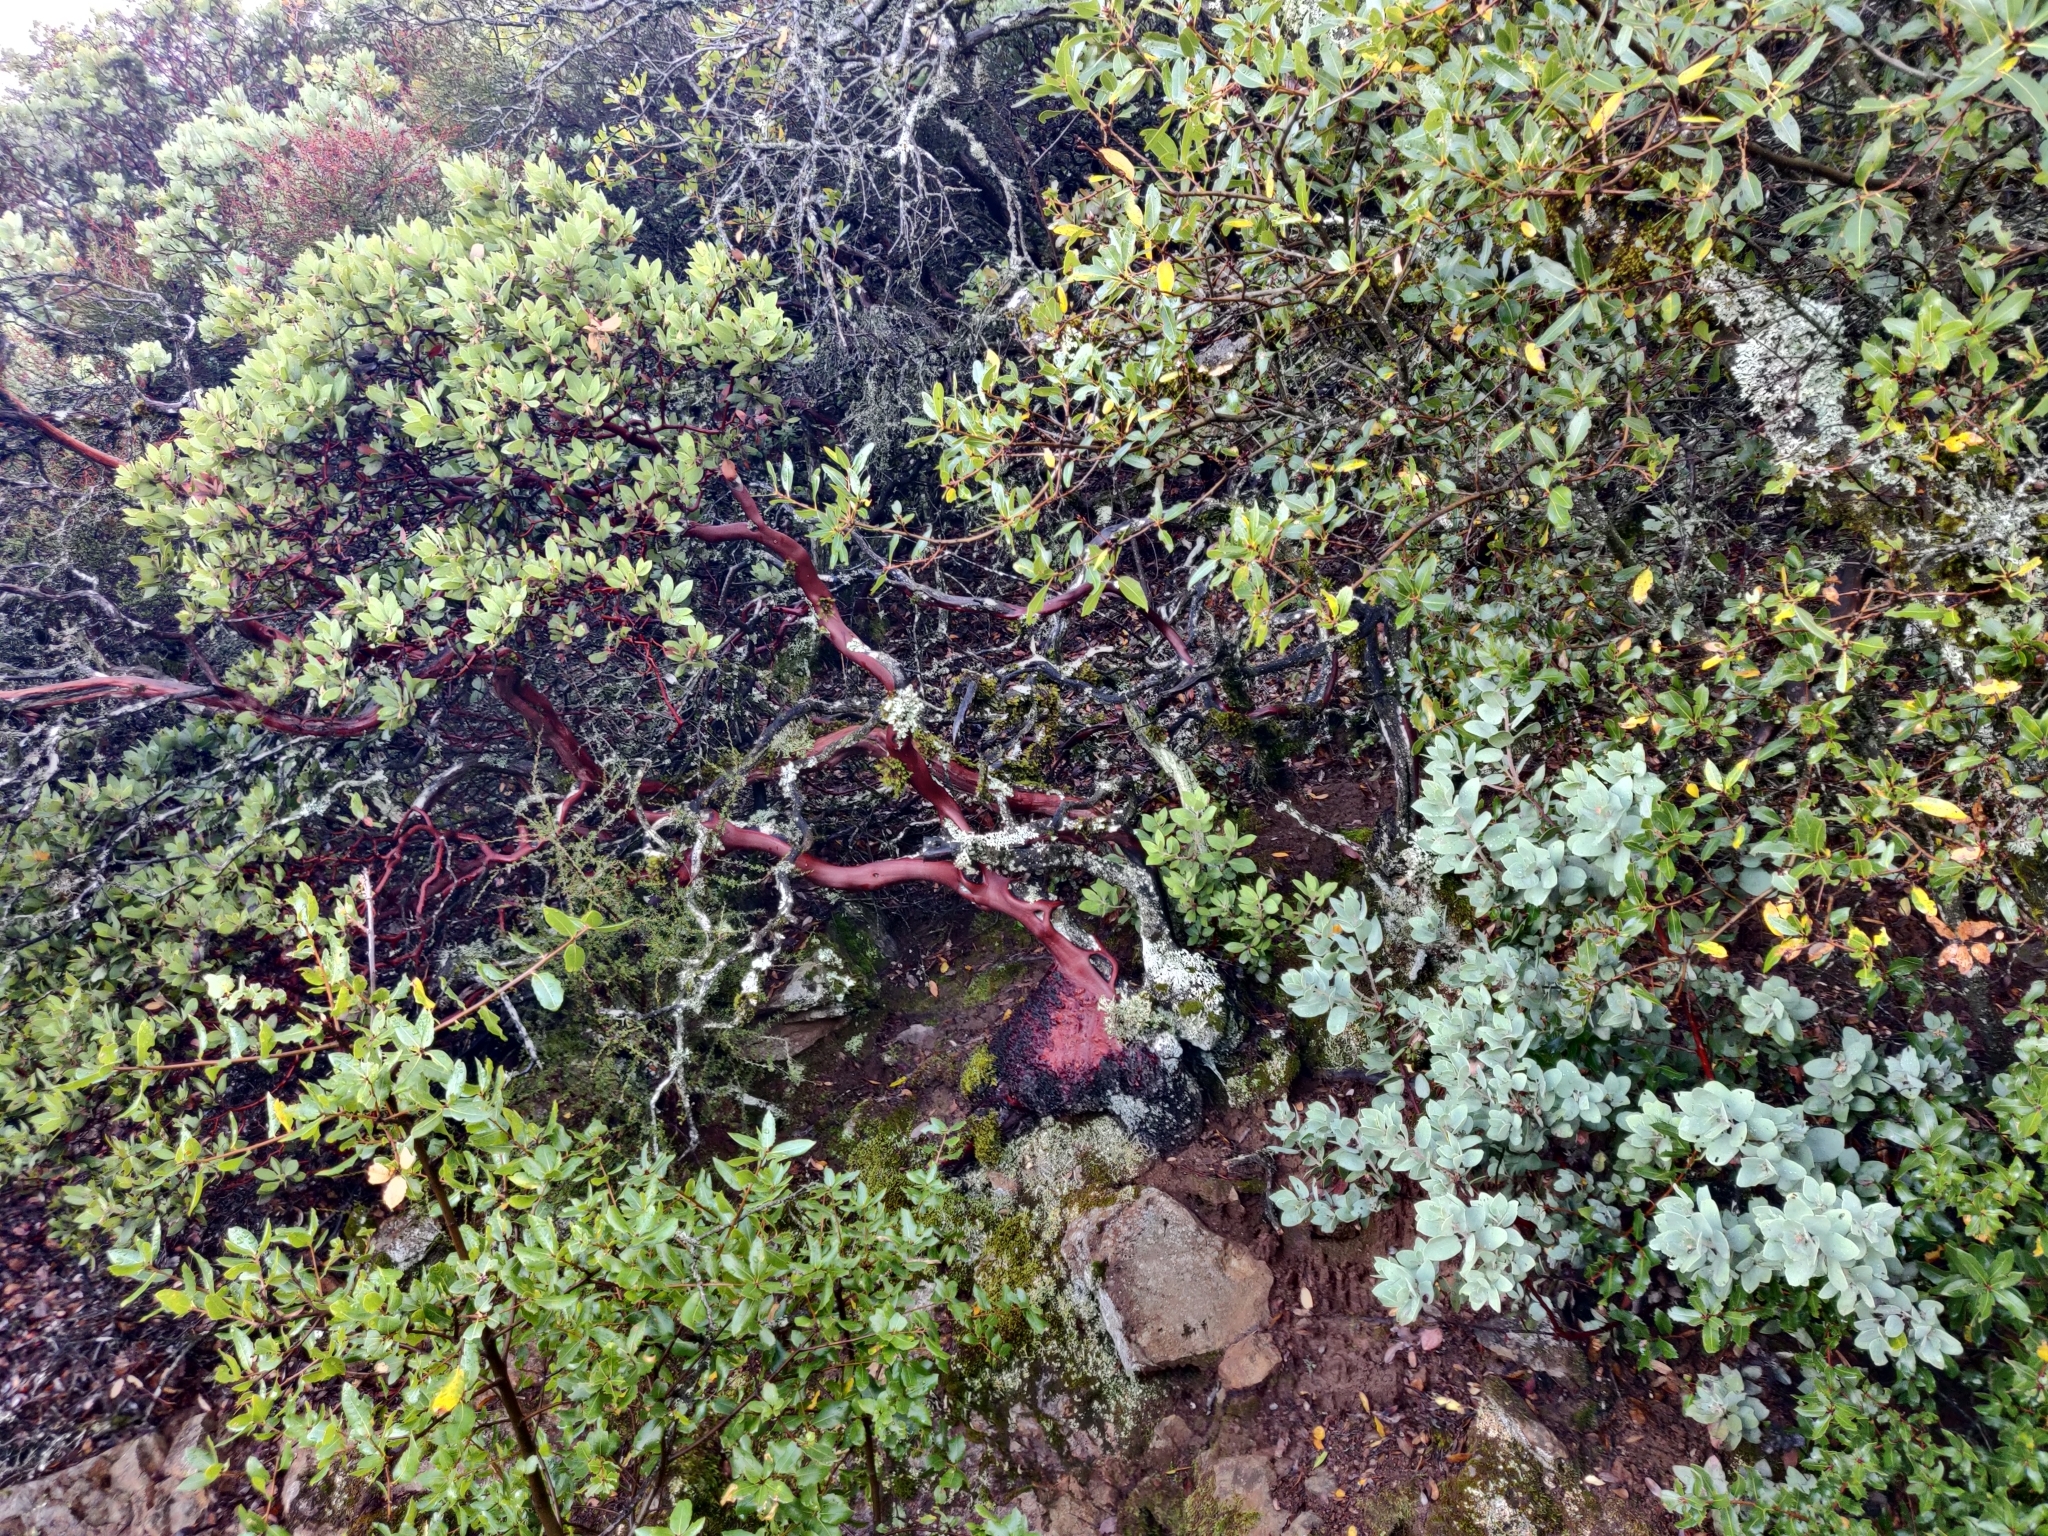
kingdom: Plantae
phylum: Tracheophyta
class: Magnoliopsida
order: Ericales
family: Ericaceae
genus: Arctostaphylos
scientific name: Arctostaphylos glandulosa
